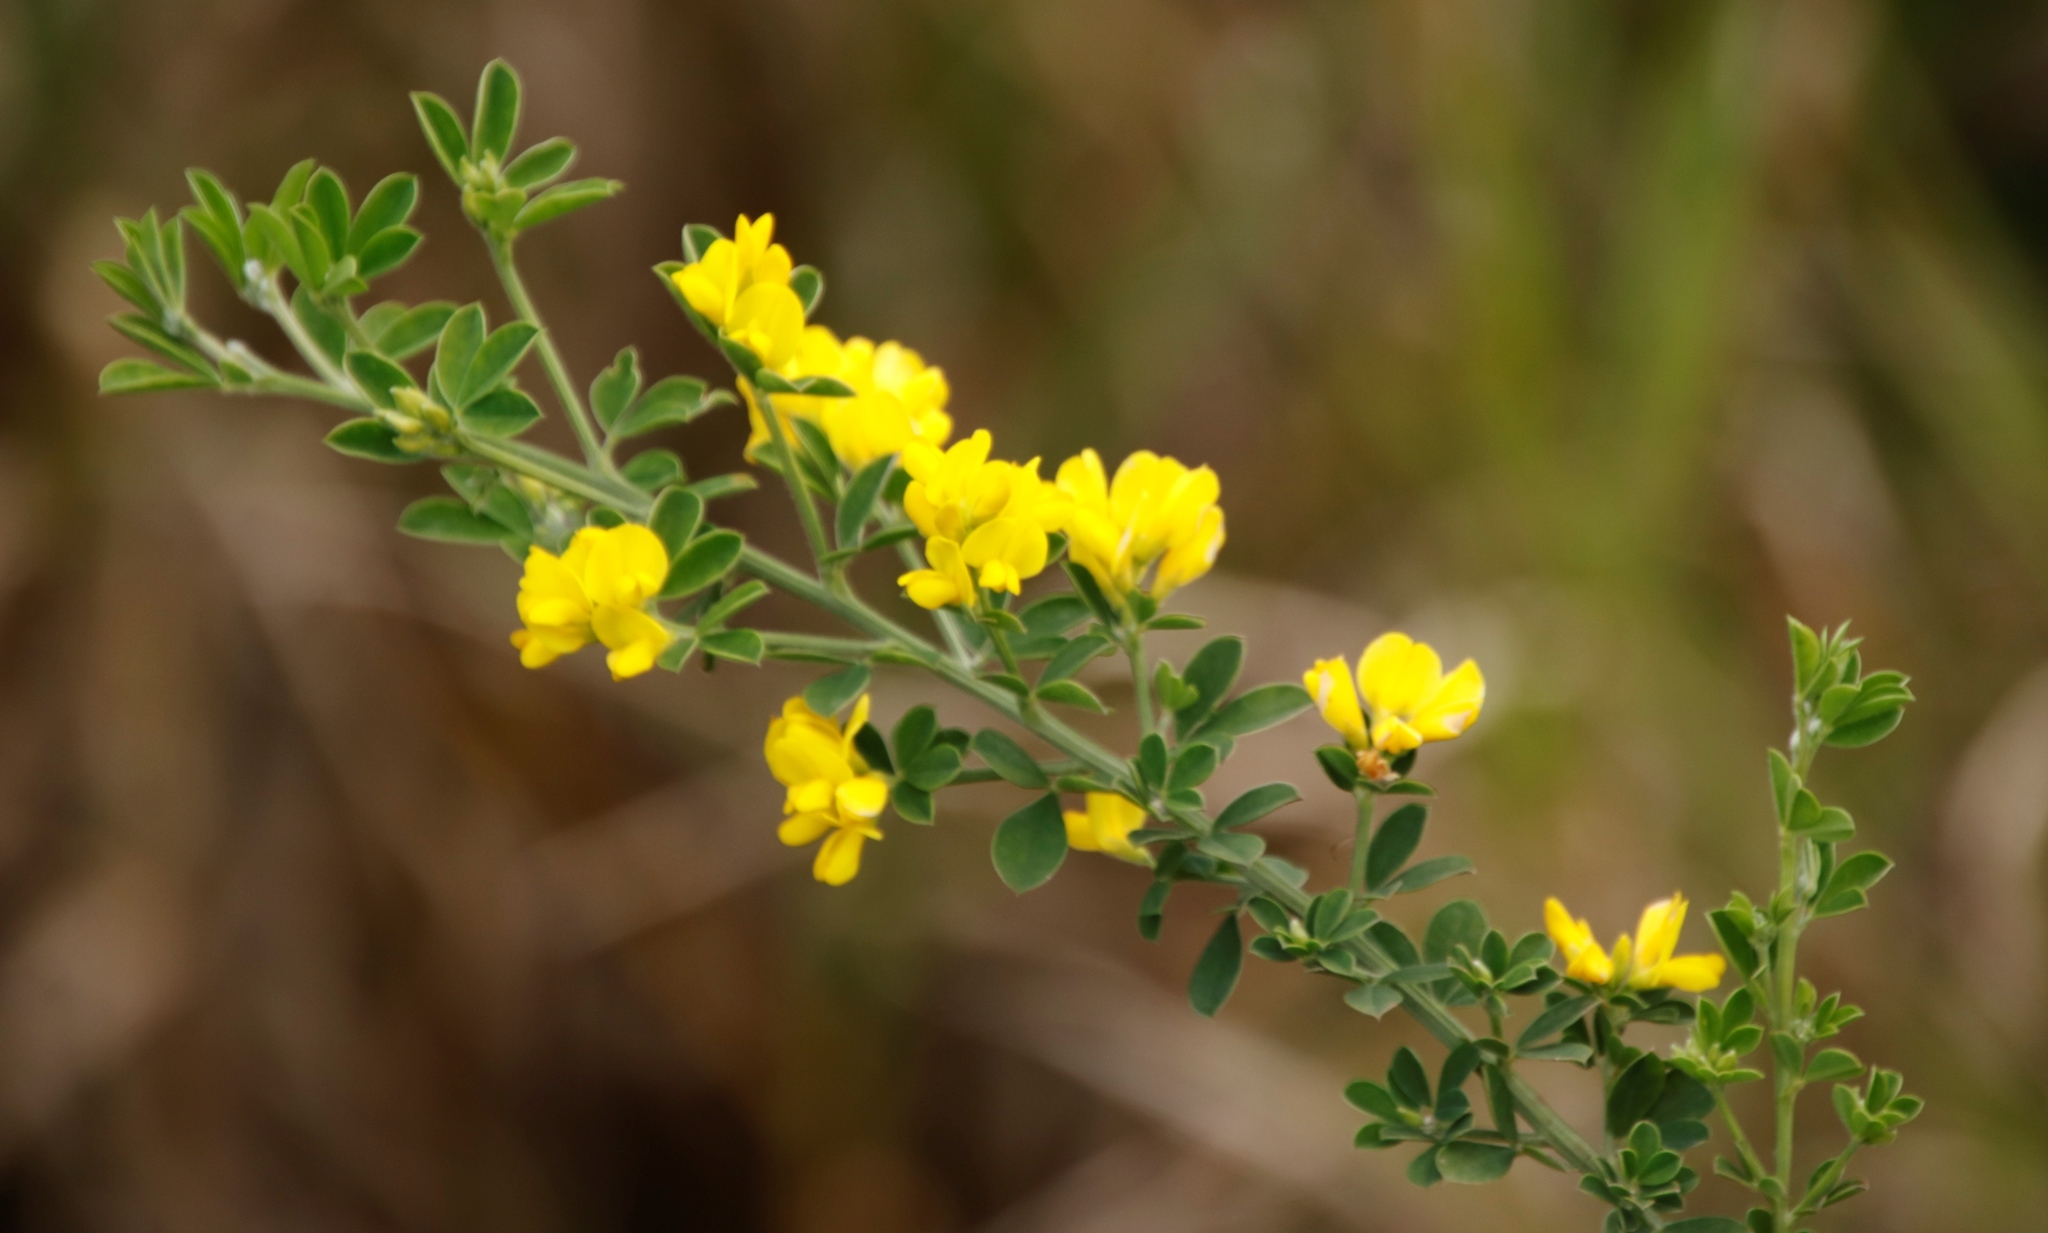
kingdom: Plantae
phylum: Tracheophyta
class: Magnoliopsida
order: Fabales
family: Fabaceae
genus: Genista
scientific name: Genista monspessulana
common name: Montpellier broom
